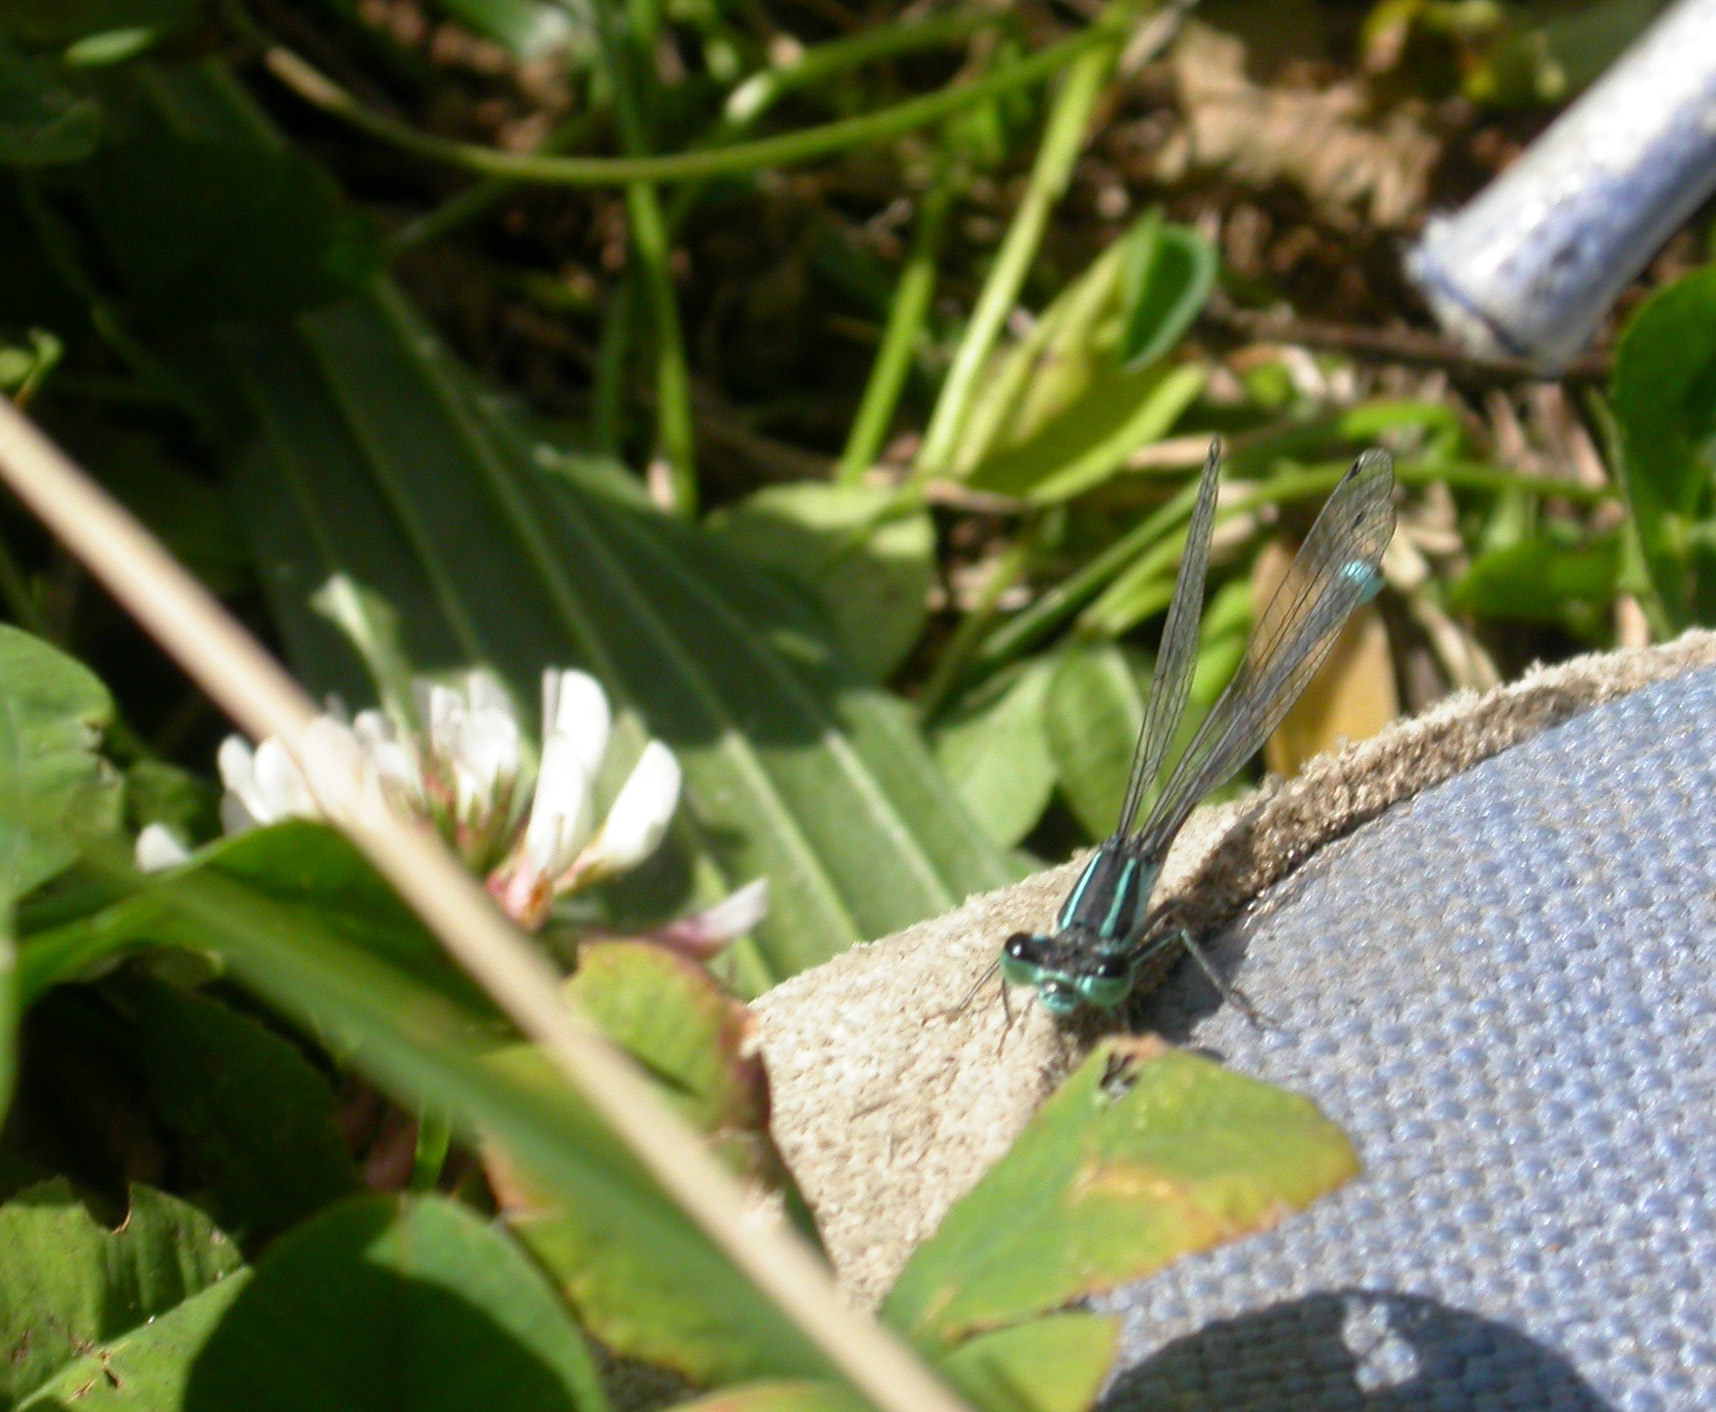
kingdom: Animalia
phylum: Arthropoda
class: Insecta
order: Odonata
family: Coenagrionidae
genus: Ischnura
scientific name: Ischnura elegans
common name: Blue-tailed damselfly
